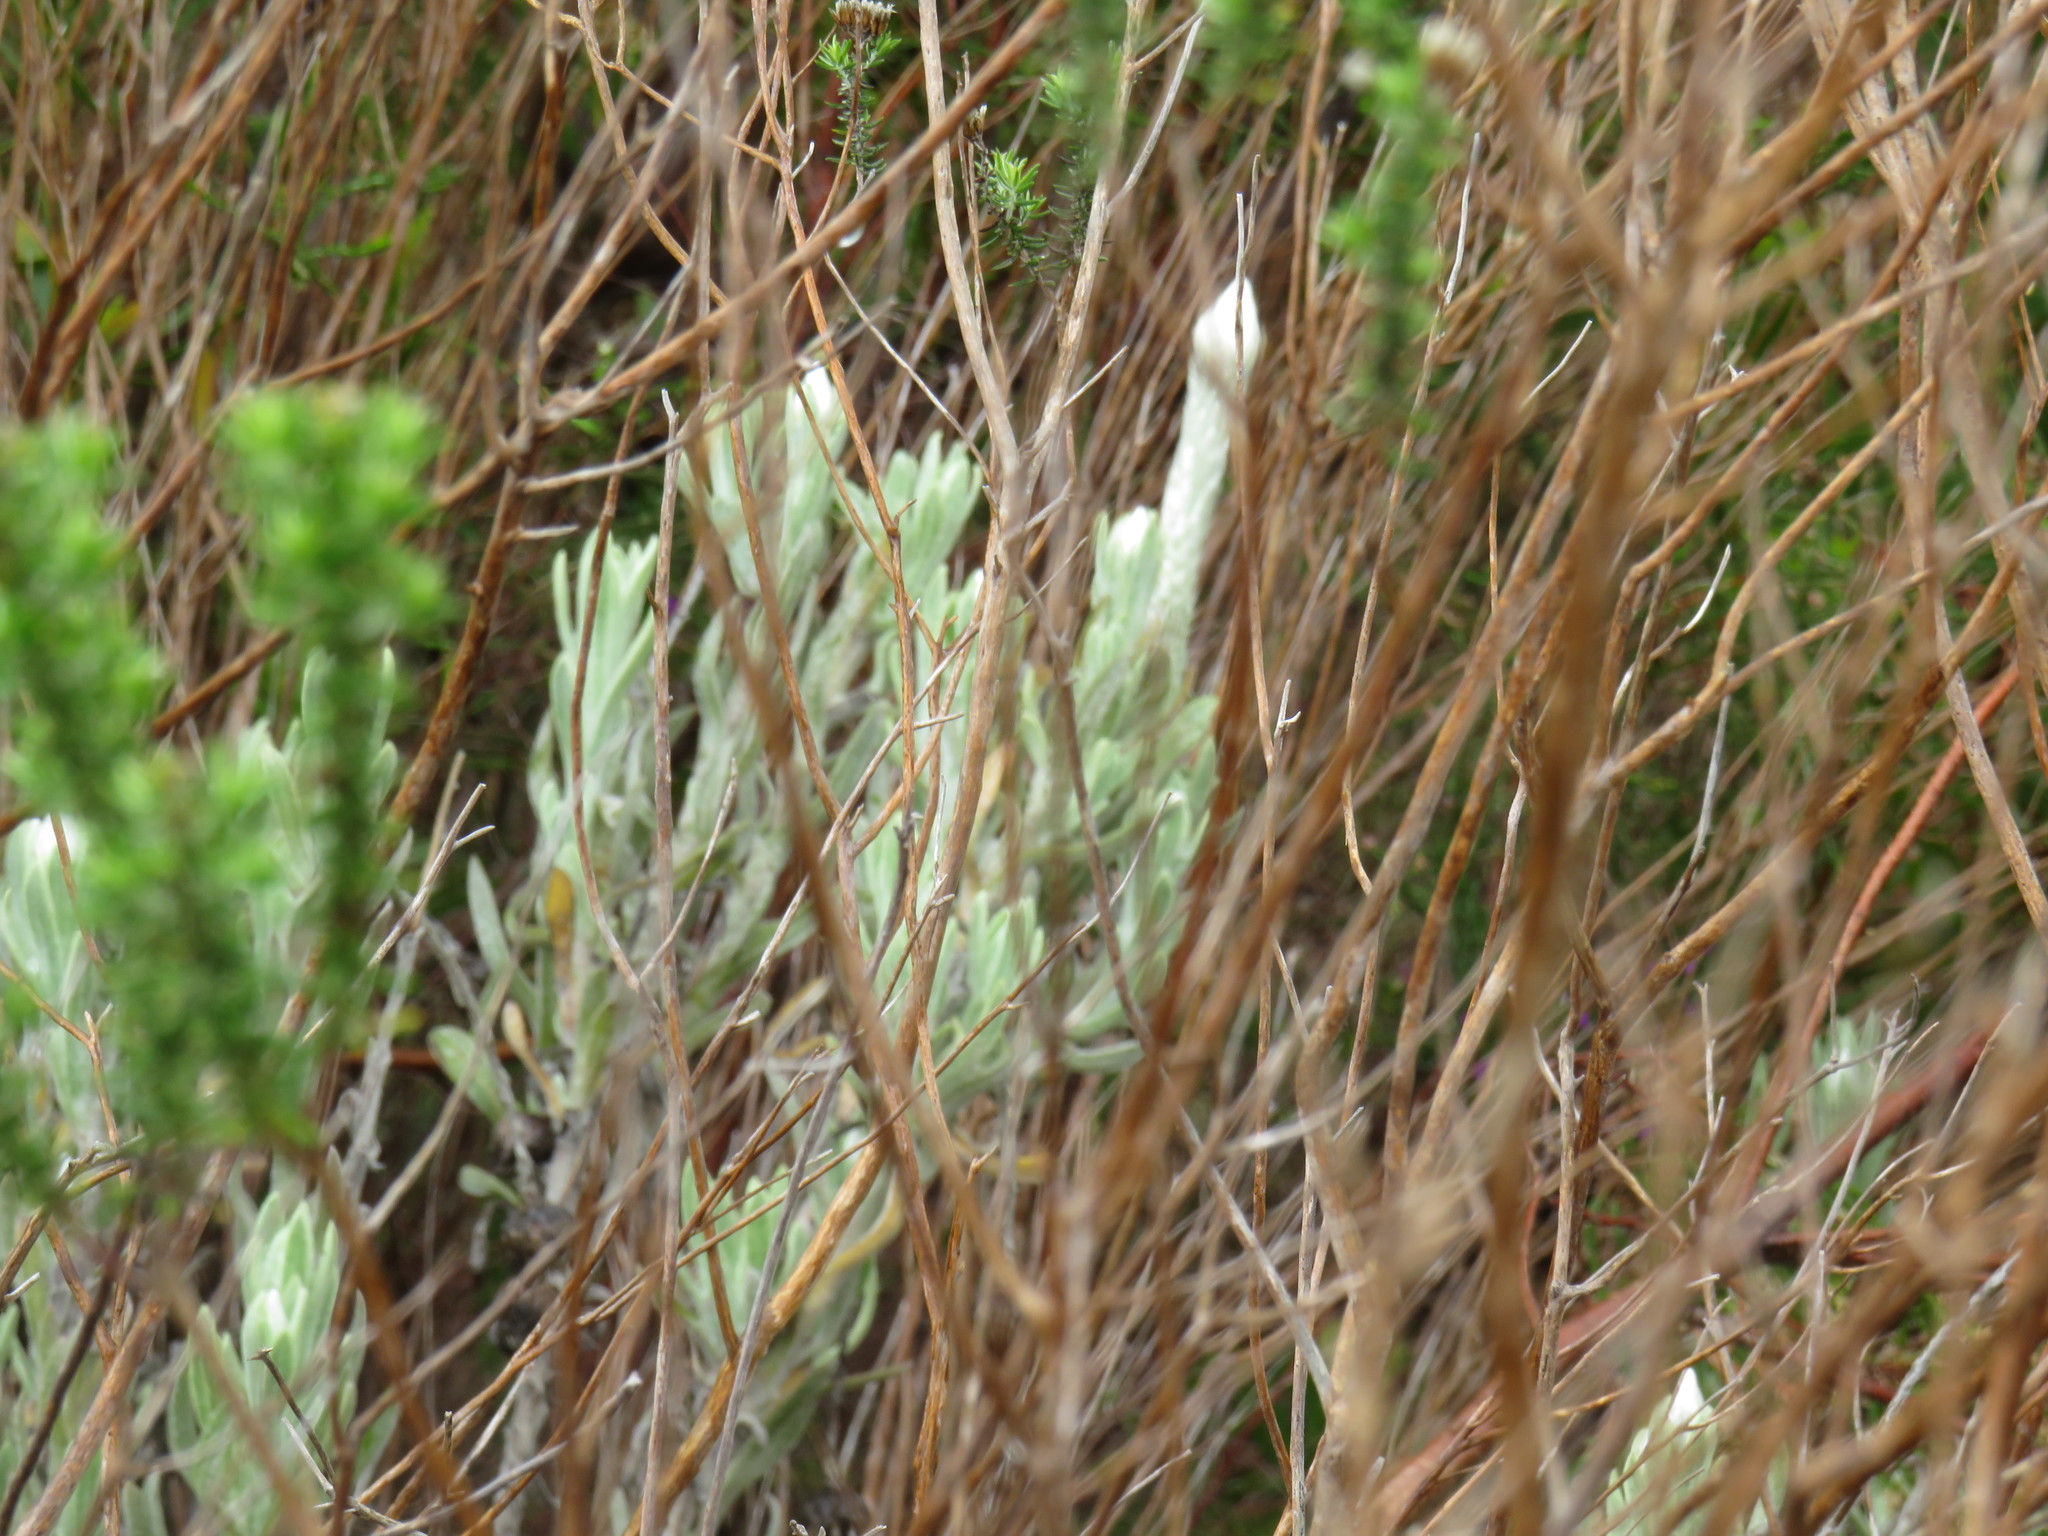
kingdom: Plantae
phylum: Tracheophyta
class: Magnoliopsida
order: Asterales
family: Asteraceae
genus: Syncarpha
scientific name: Syncarpha vestita
